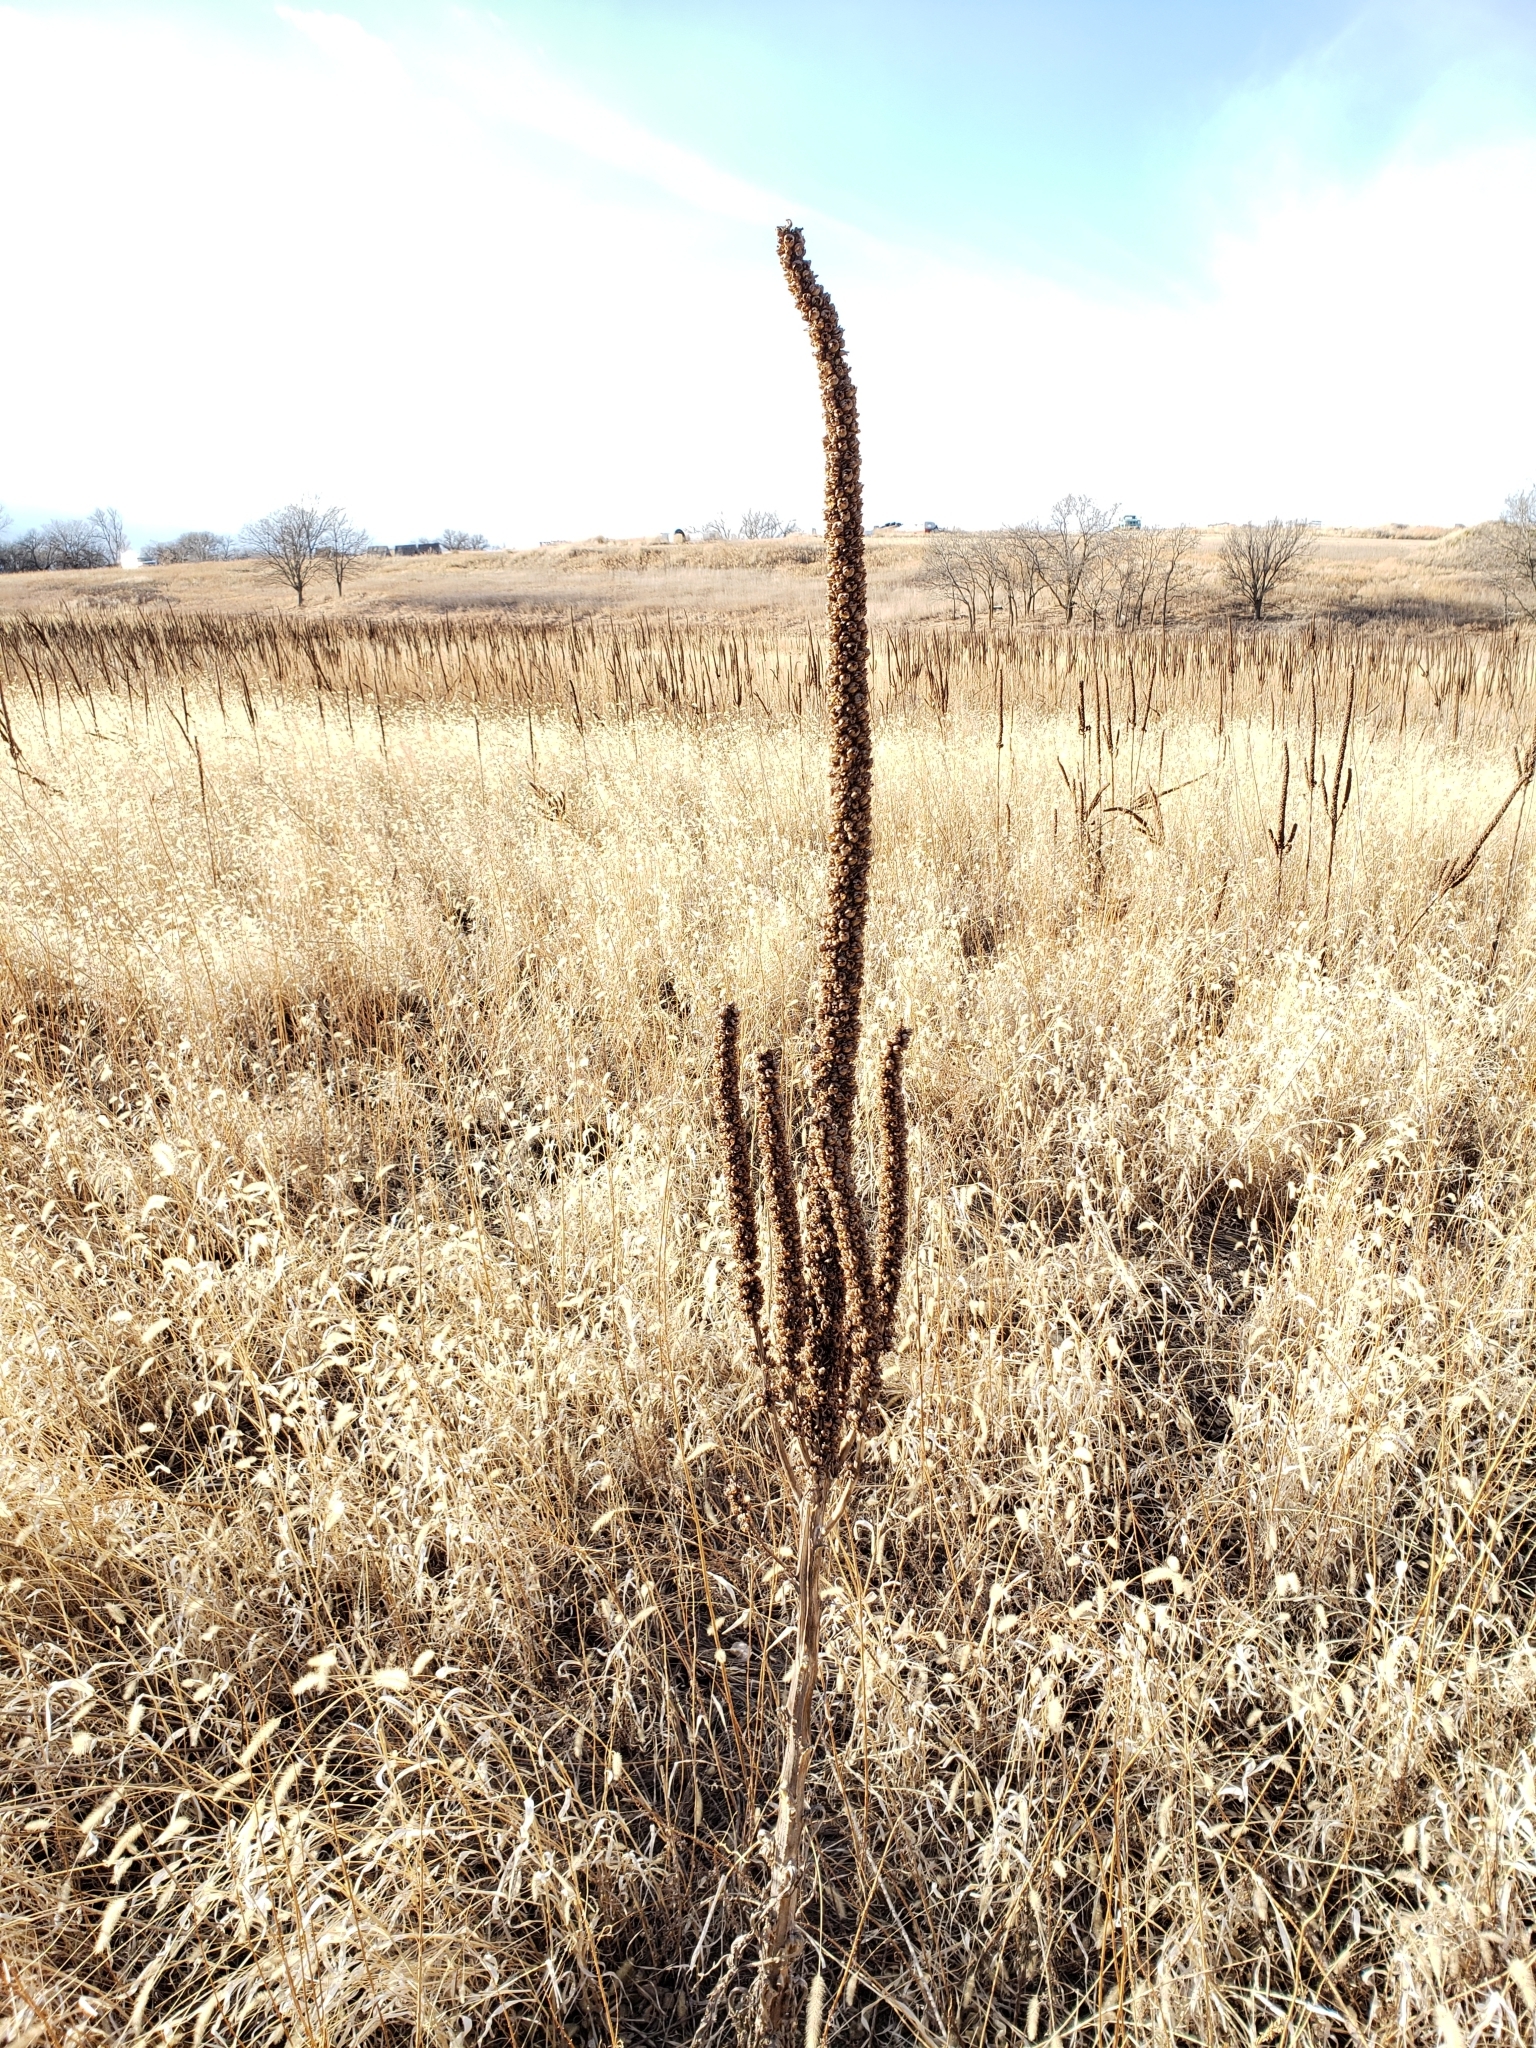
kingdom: Plantae
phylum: Tracheophyta
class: Magnoliopsida
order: Lamiales
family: Scrophulariaceae
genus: Verbascum
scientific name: Verbascum thapsus
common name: Common mullein
